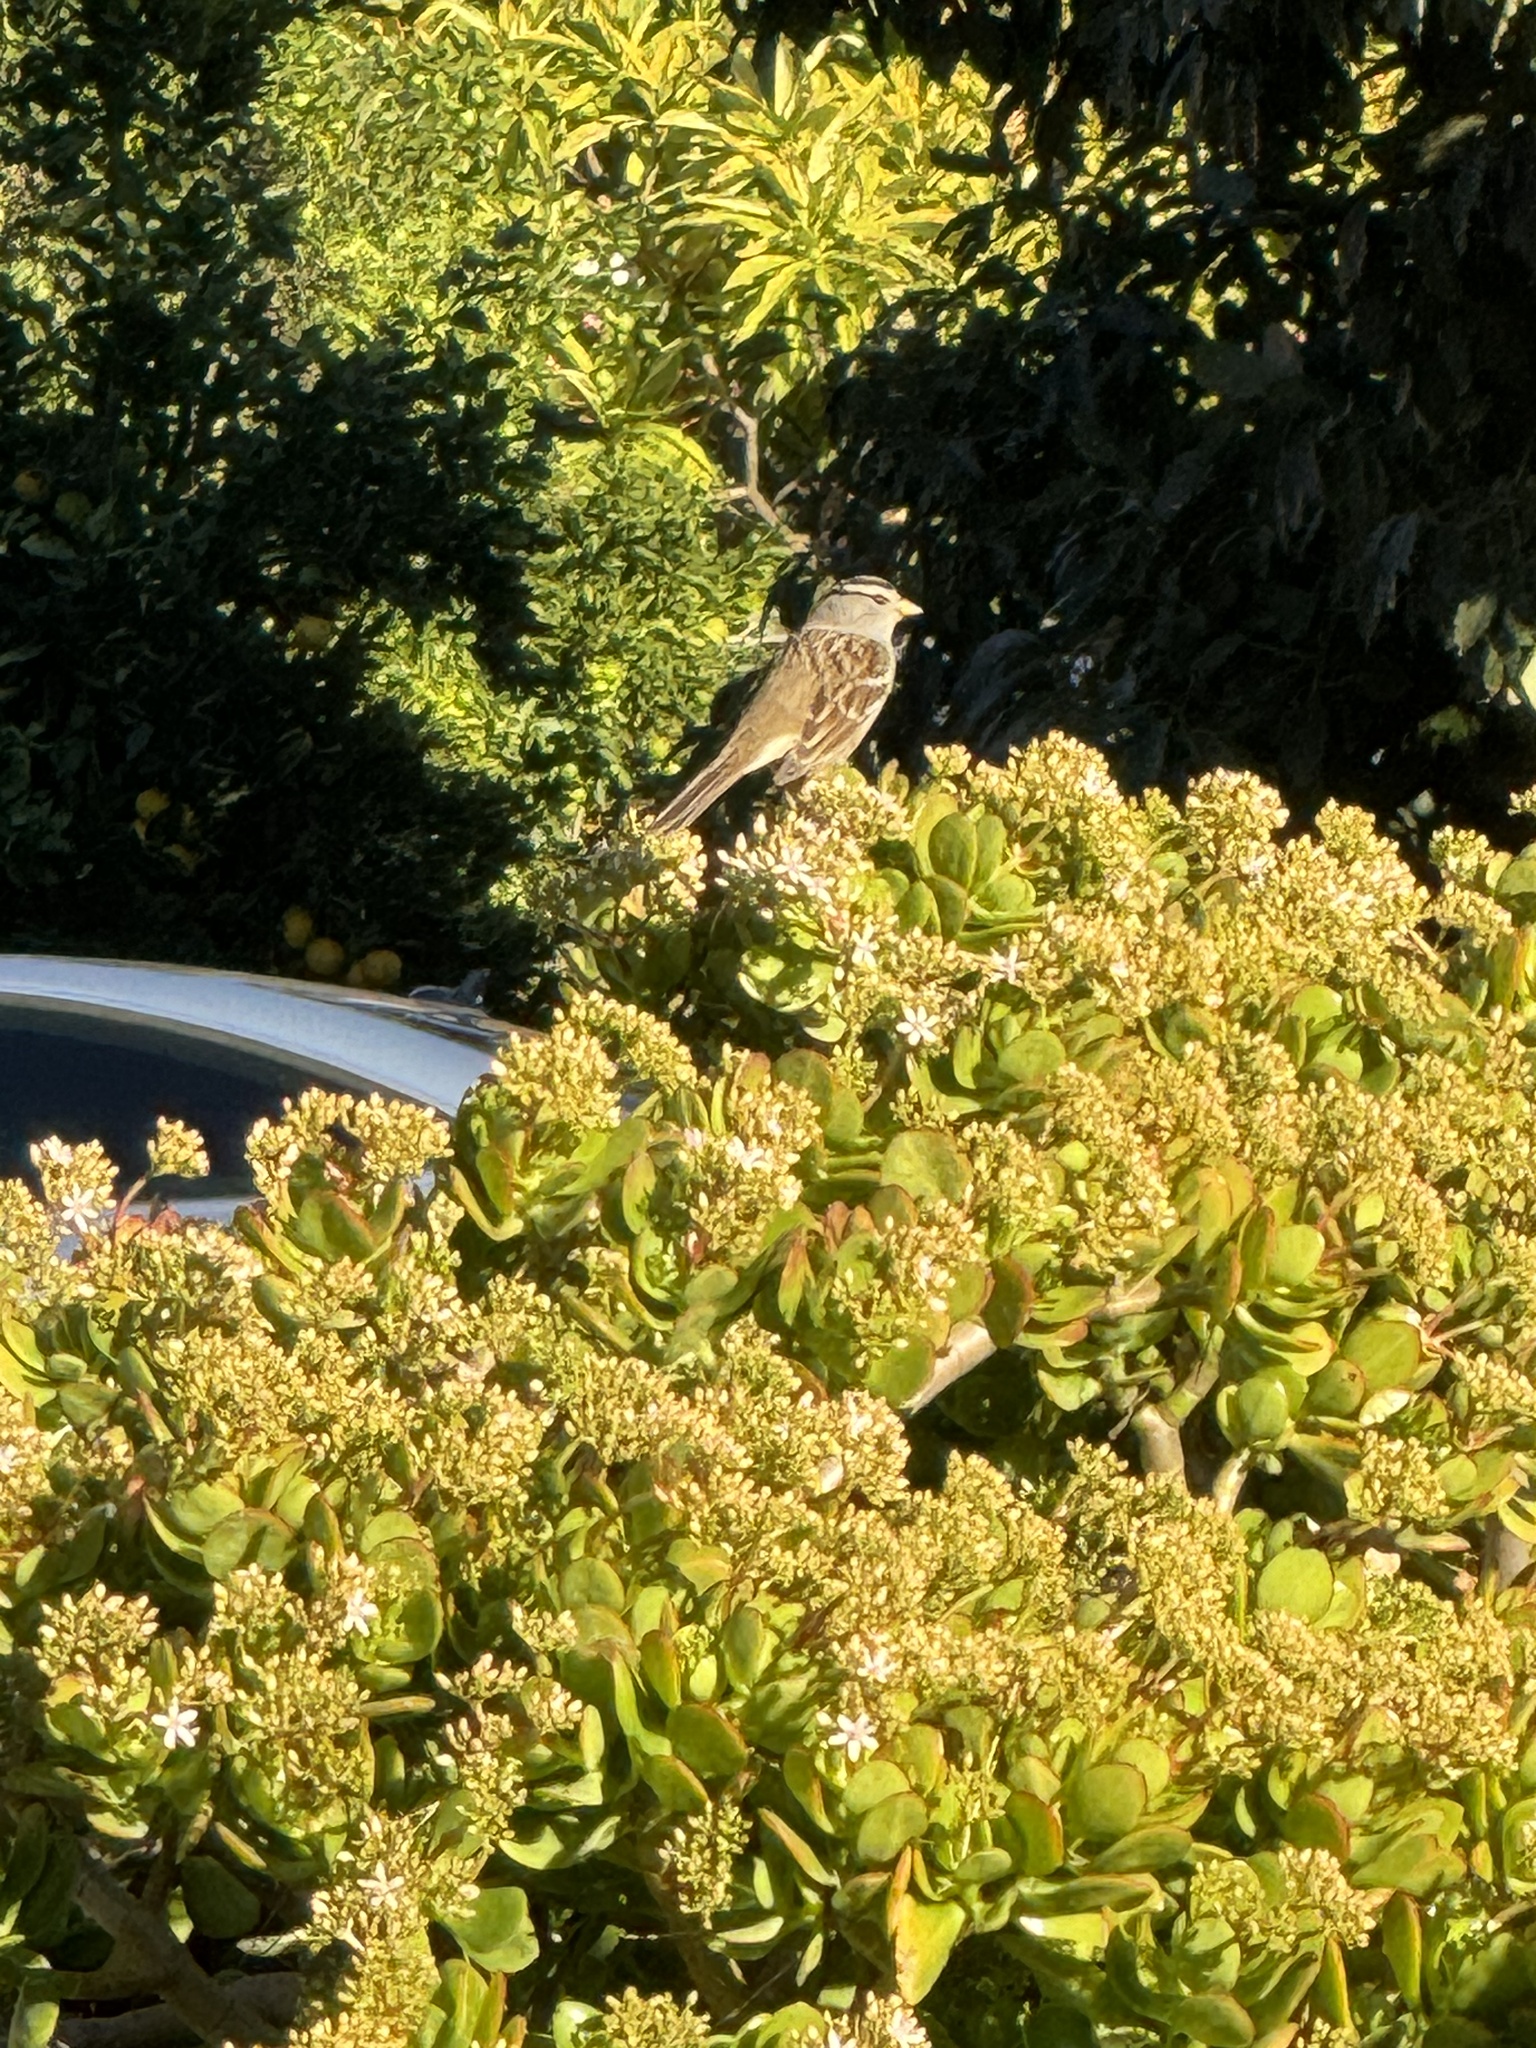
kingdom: Animalia
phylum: Chordata
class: Aves
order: Passeriformes
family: Passerellidae
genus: Zonotrichia
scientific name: Zonotrichia leucophrys
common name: White-crowned sparrow
